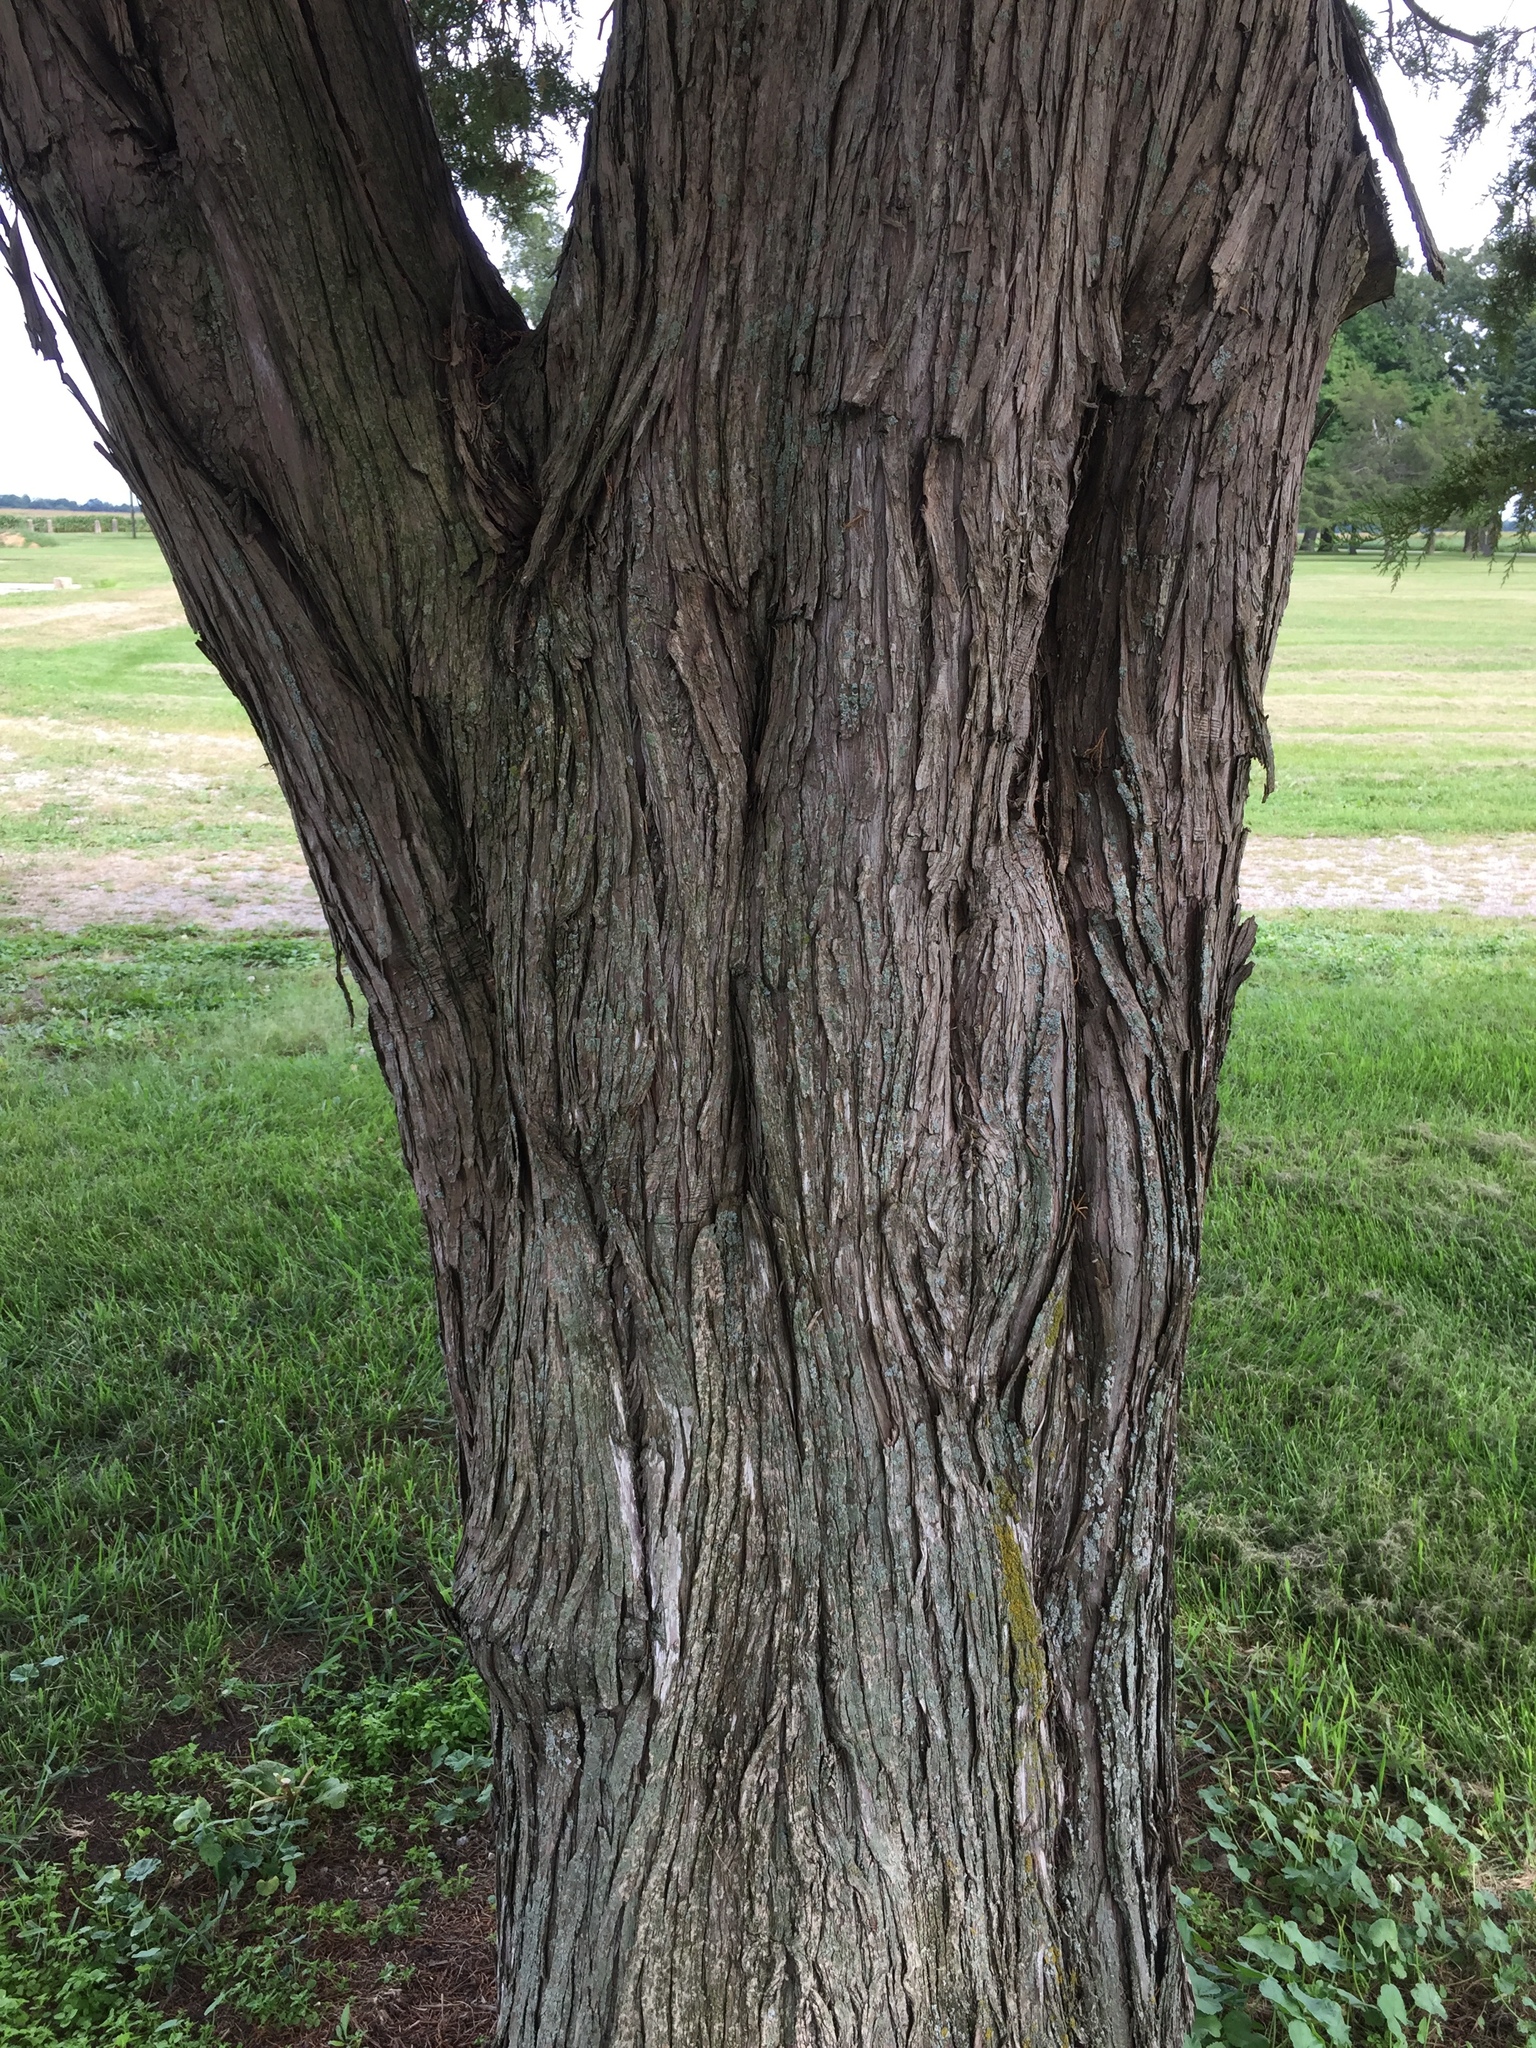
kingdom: Plantae
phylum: Tracheophyta
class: Pinopsida
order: Pinales
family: Cupressaceae
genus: Juniperus
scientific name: Juniperus virginiana
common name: Red juniper
